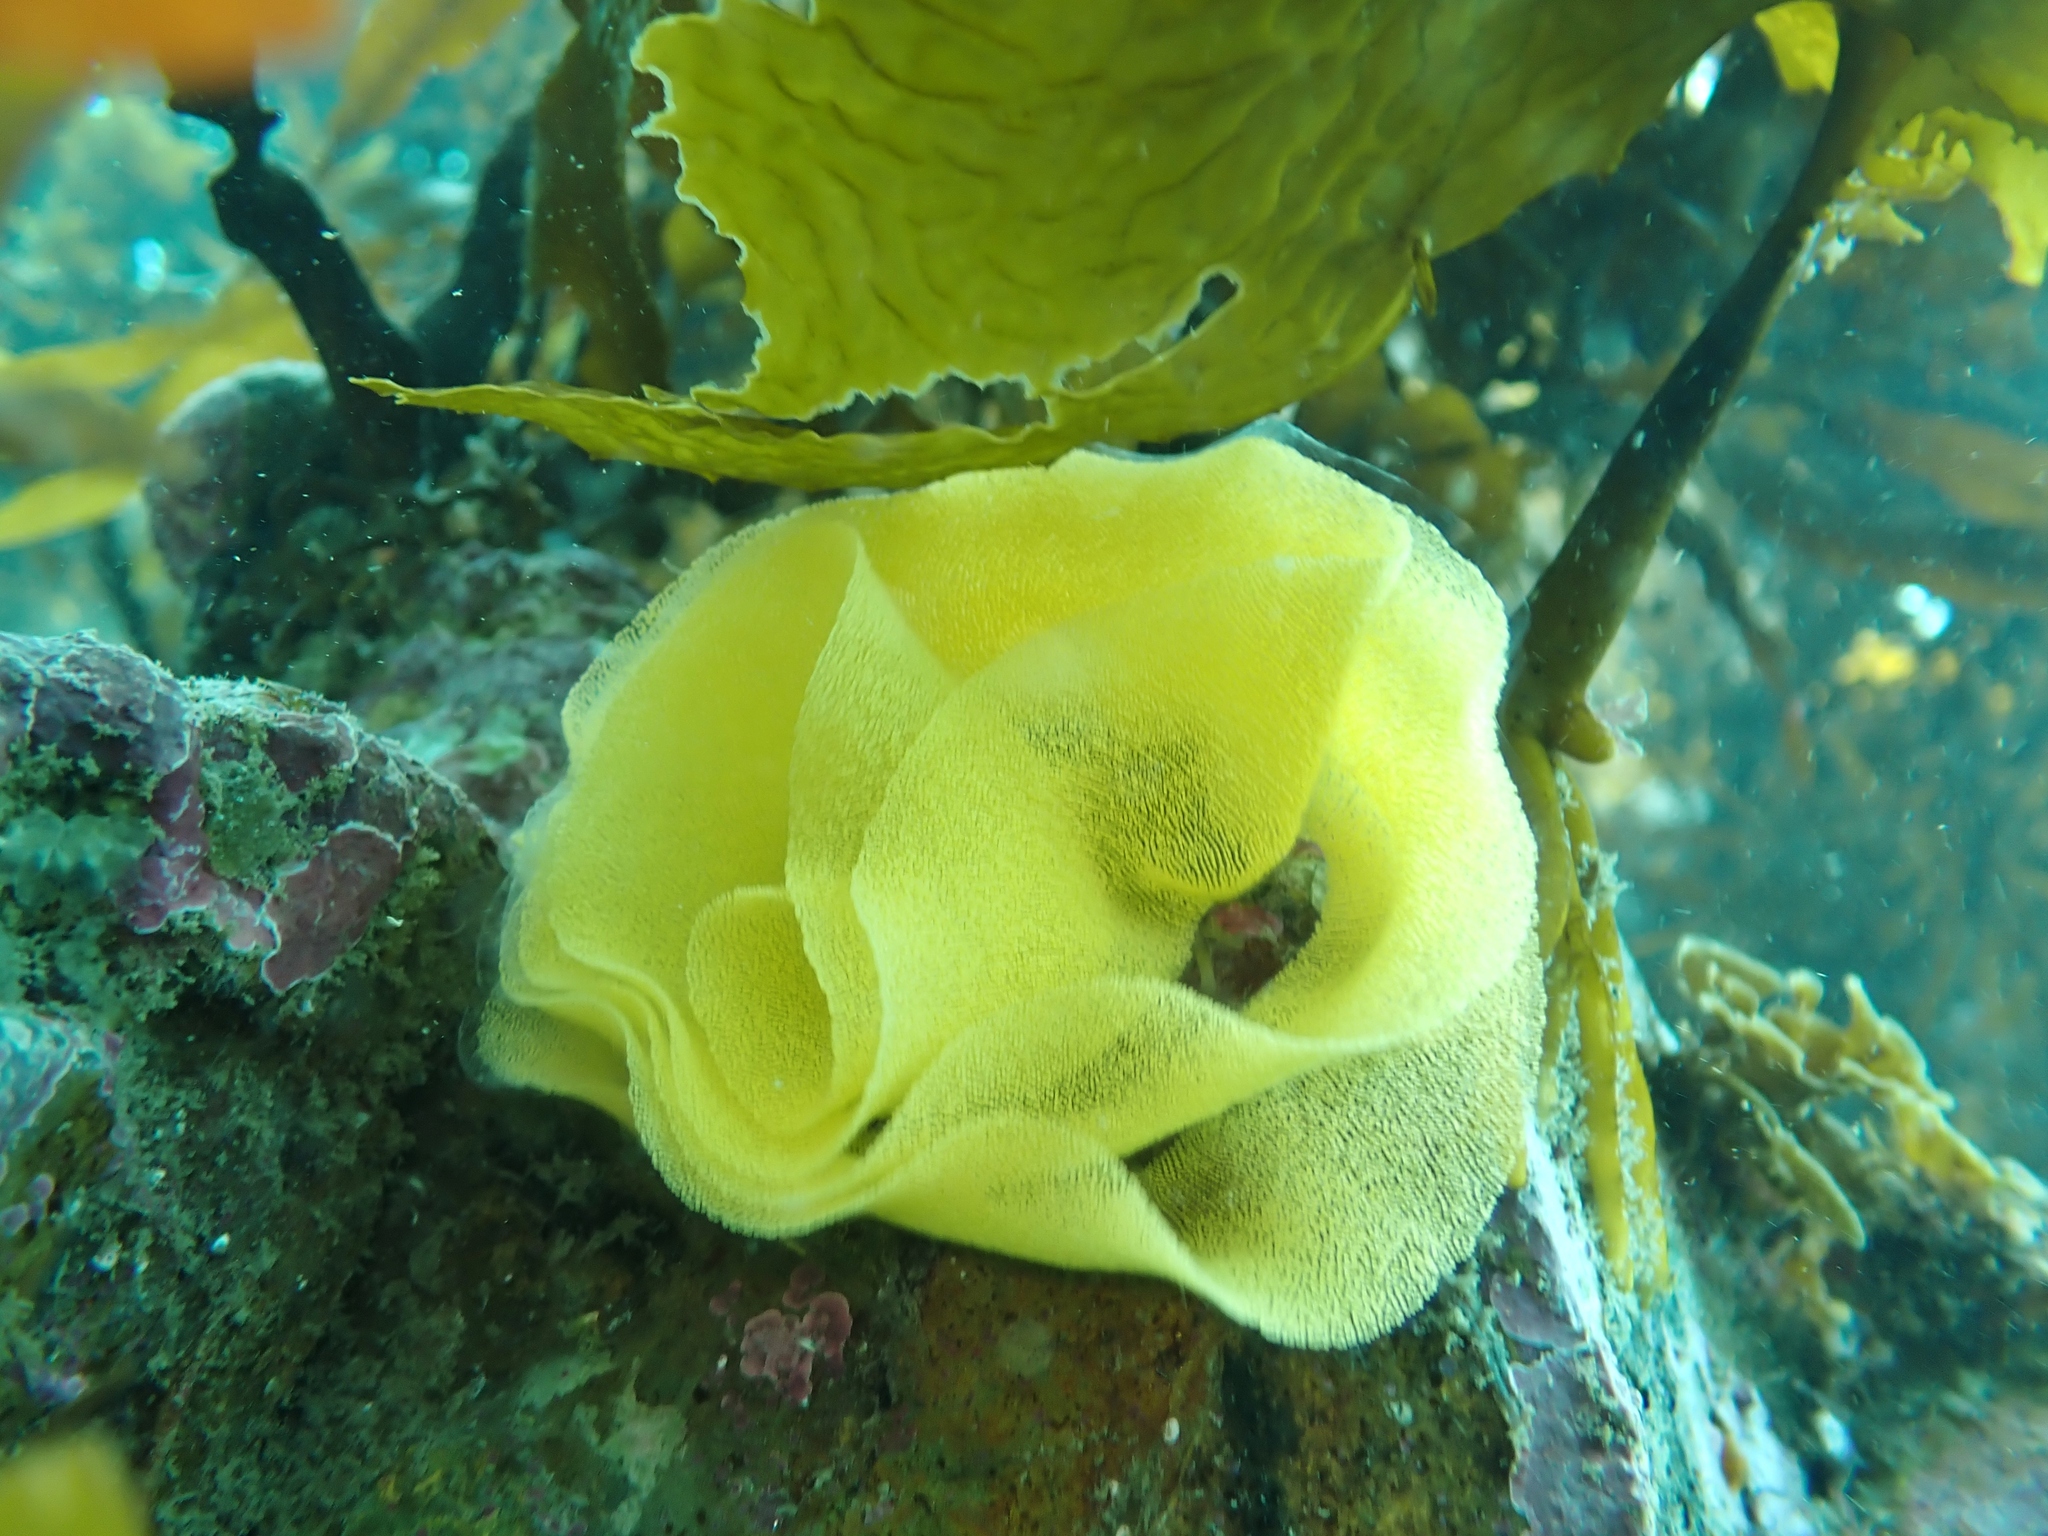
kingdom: Animalia
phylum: Mollusca
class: Gastropoda
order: Nudibranchia
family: Dorididae
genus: Doris
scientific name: Doris wellingtonensis
